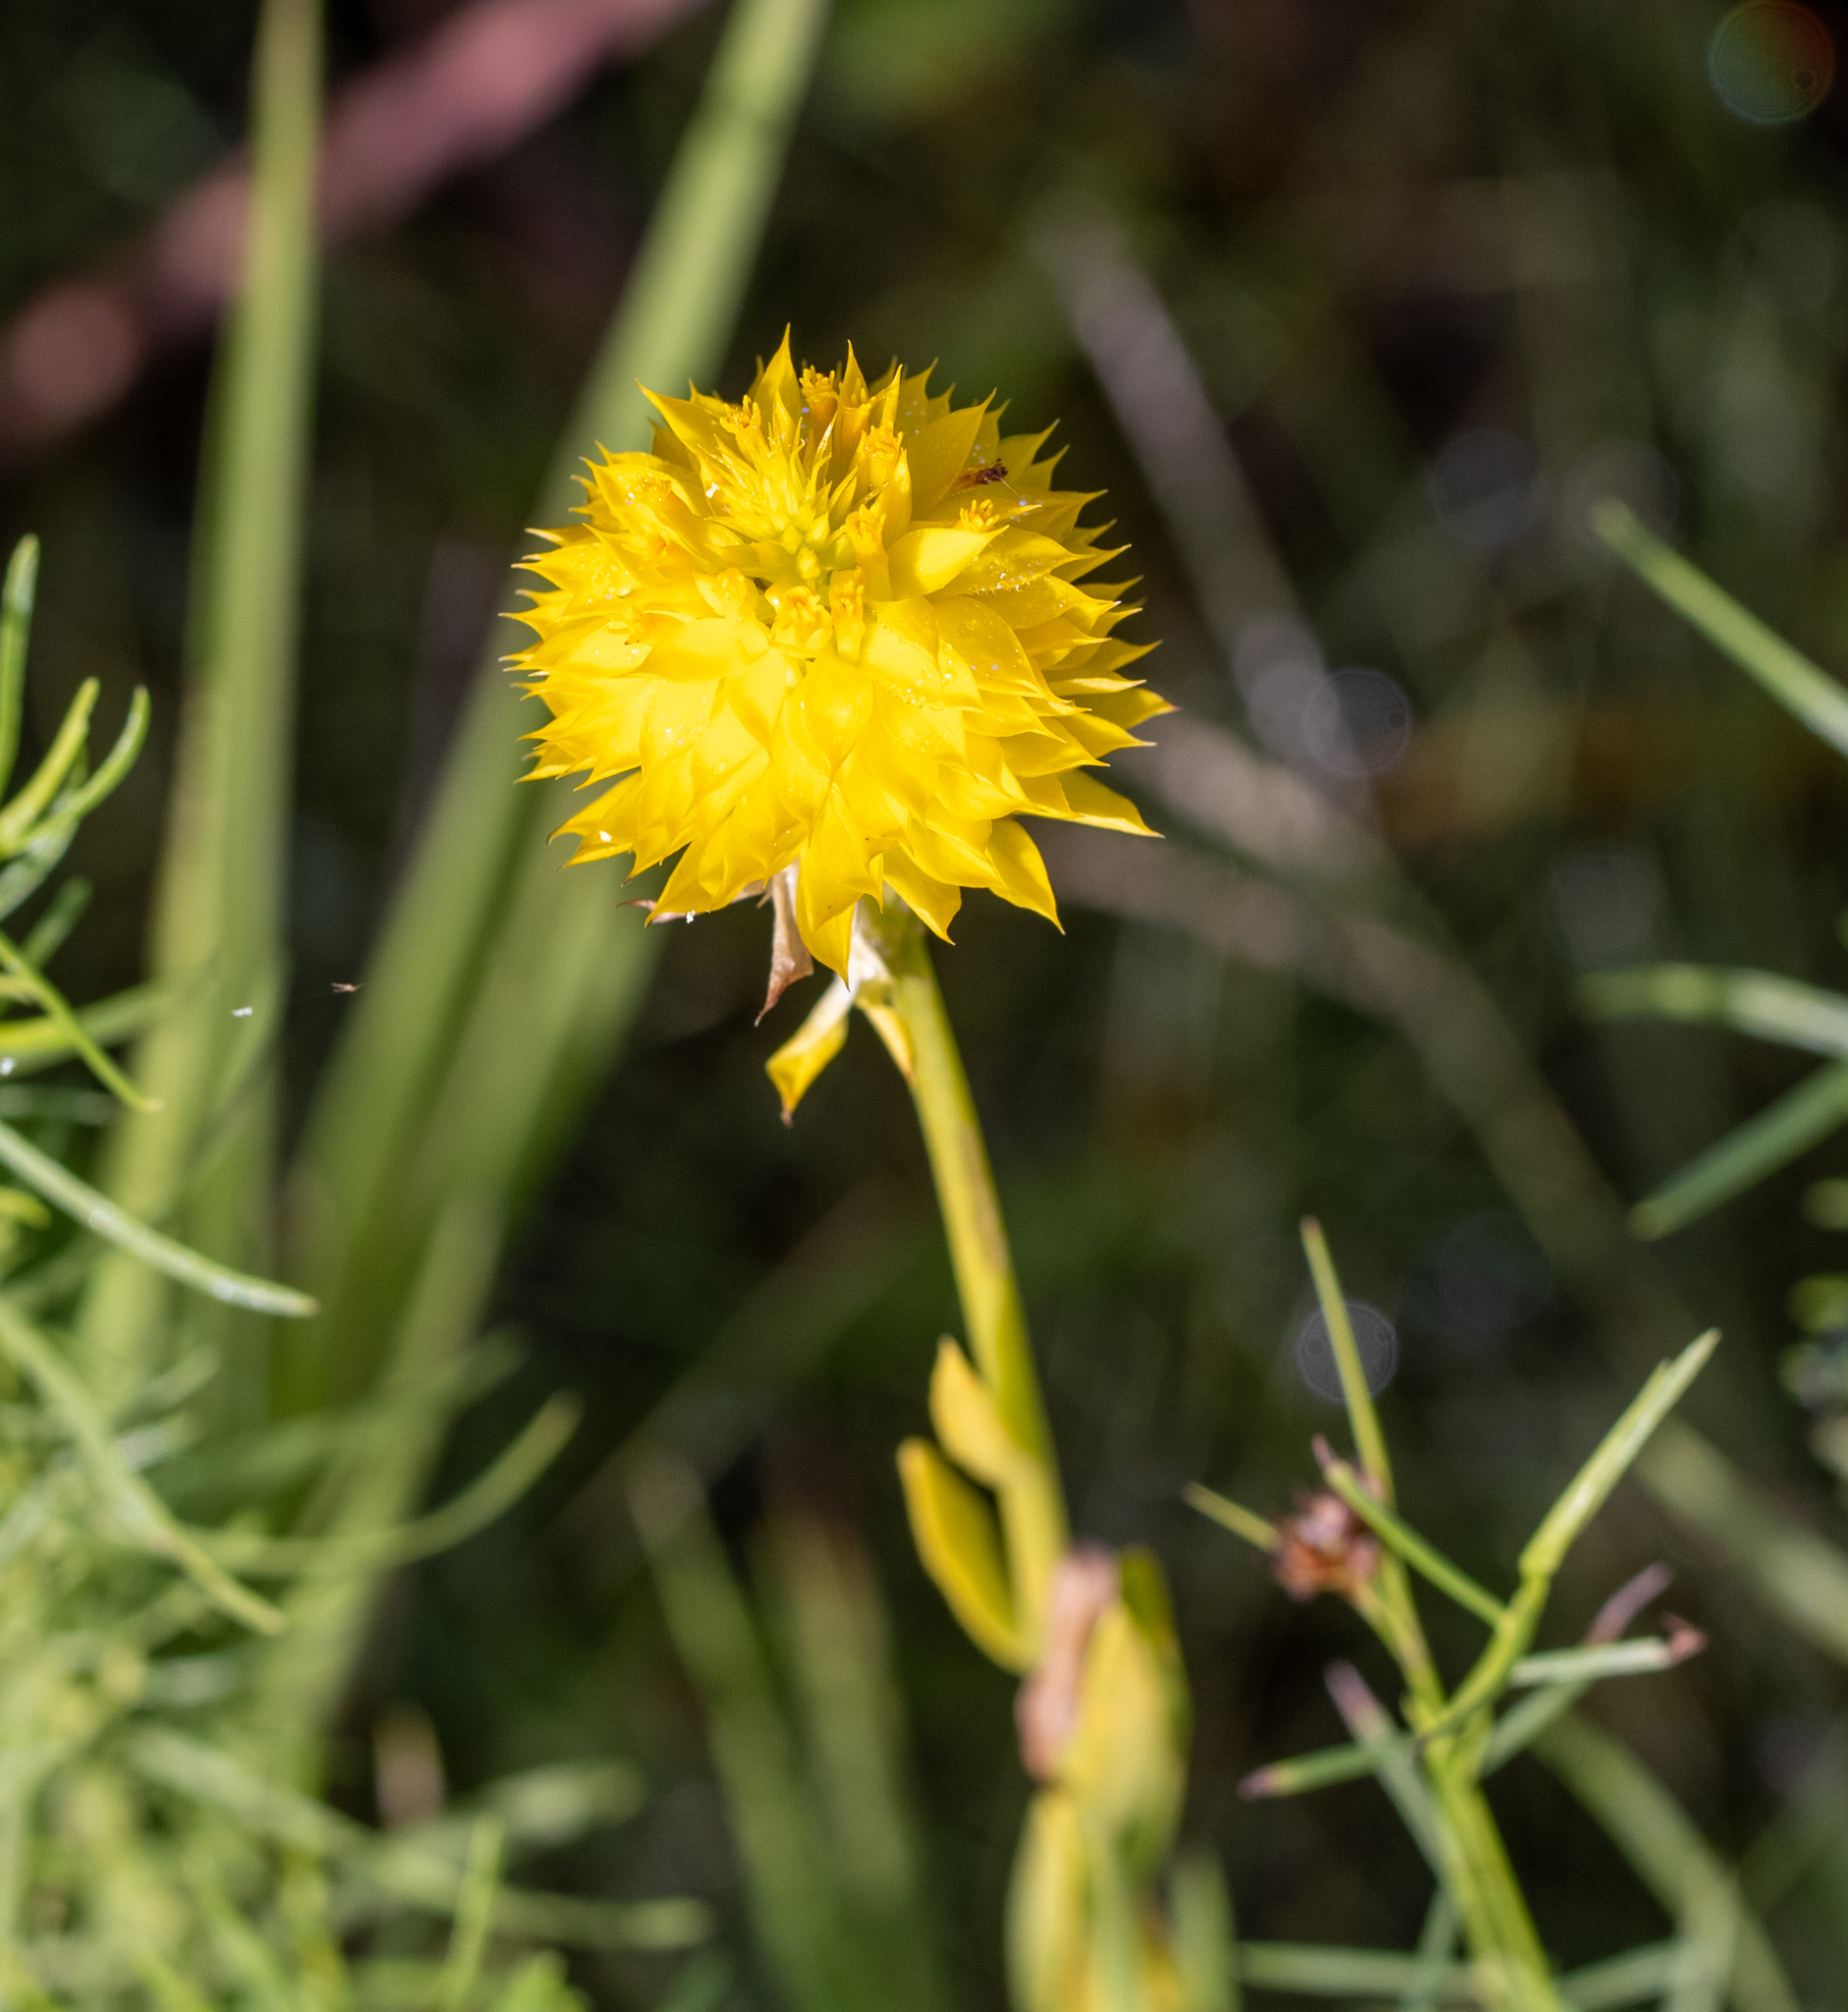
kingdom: Plantae
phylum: Tracheophyta
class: Magnoliopsida
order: Fabales
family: Polygalaceae
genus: Polygala
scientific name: Polygala rugelii
